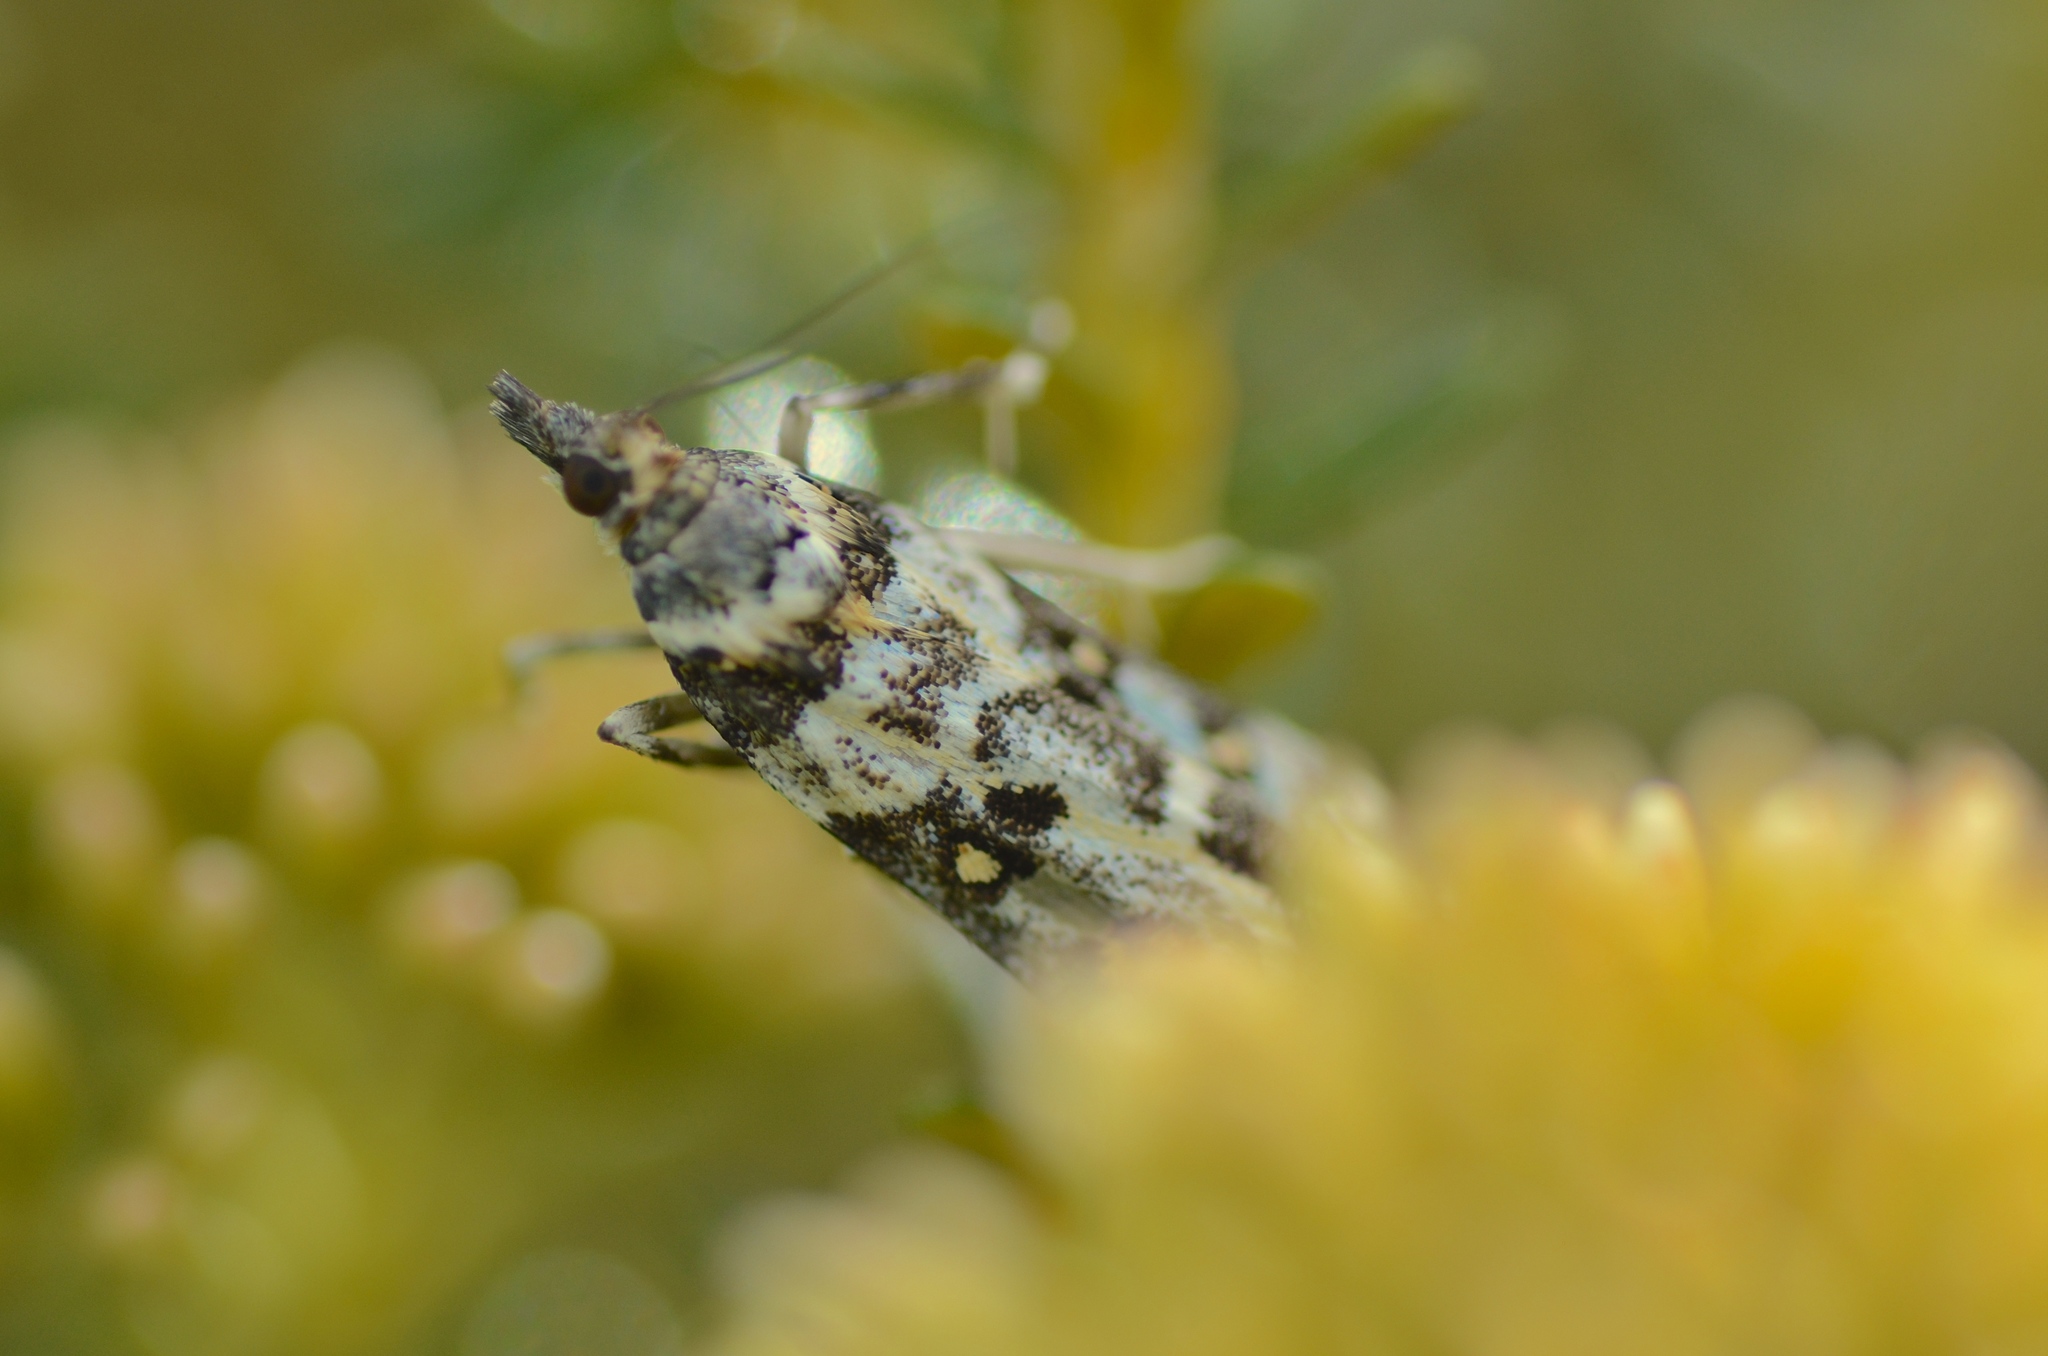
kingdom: Animalia
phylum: Arthropoda
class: Insecta
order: Lepidoptera
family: Crambidae
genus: Eudonia
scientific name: Eudonia diphtheralis
